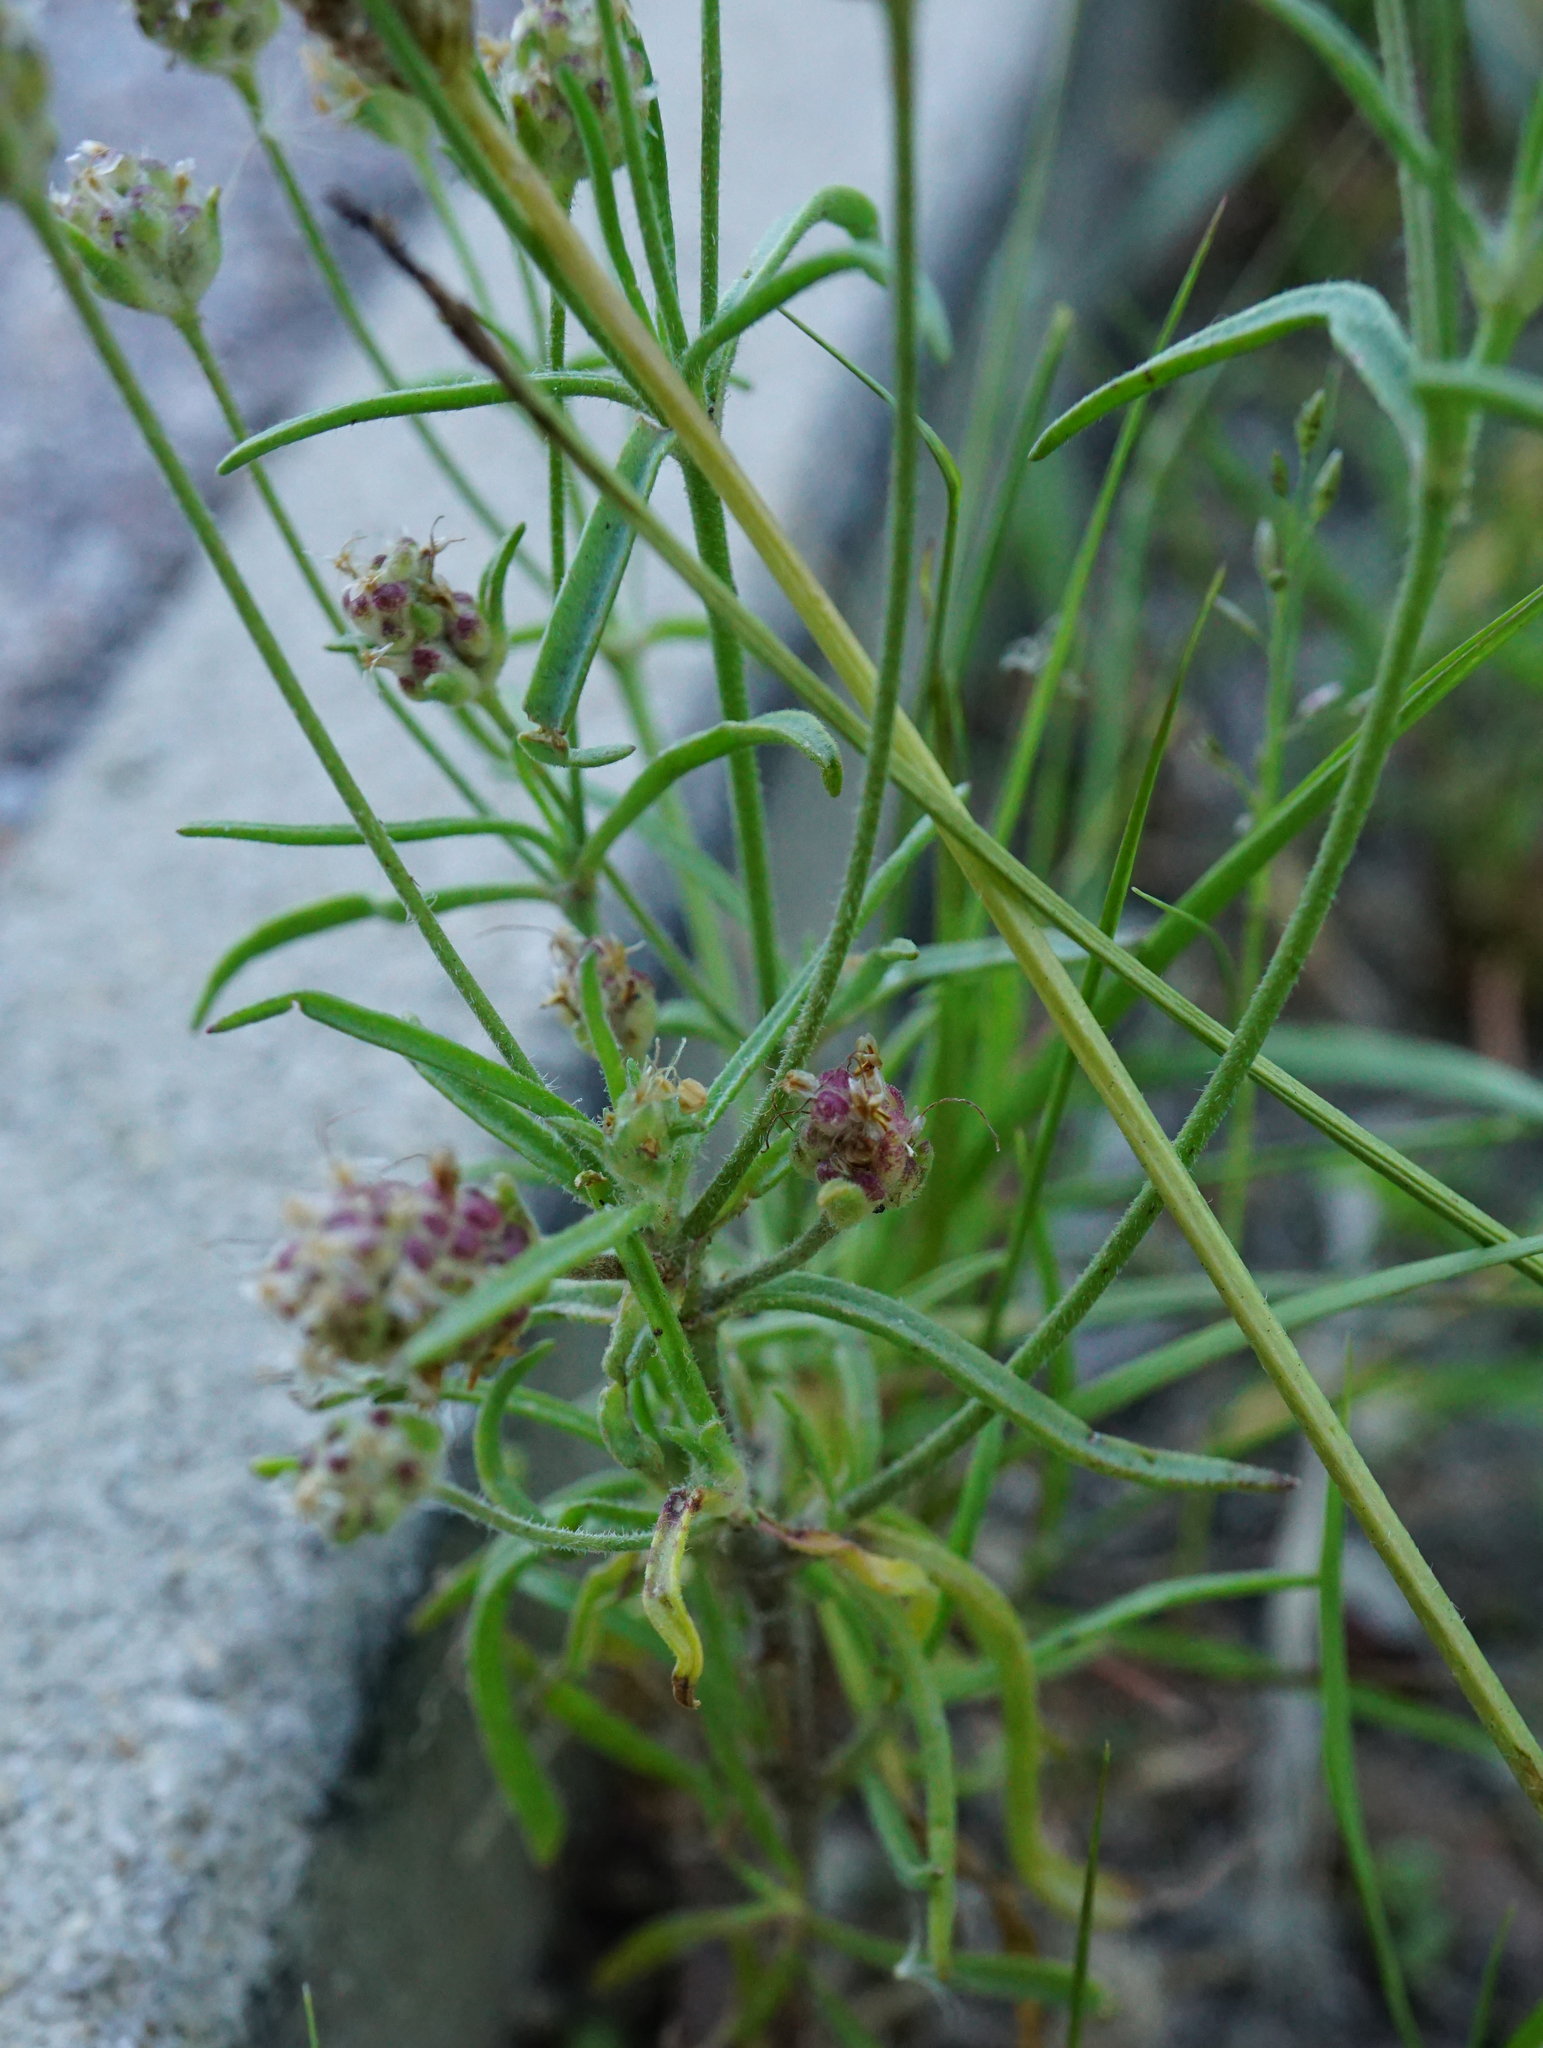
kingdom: Plantae
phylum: Tracheophyta
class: Magnoliopsida
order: Lamiales
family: Plantaginaceae
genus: Plantago
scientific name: Plantago arenaria
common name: Branched plantain
